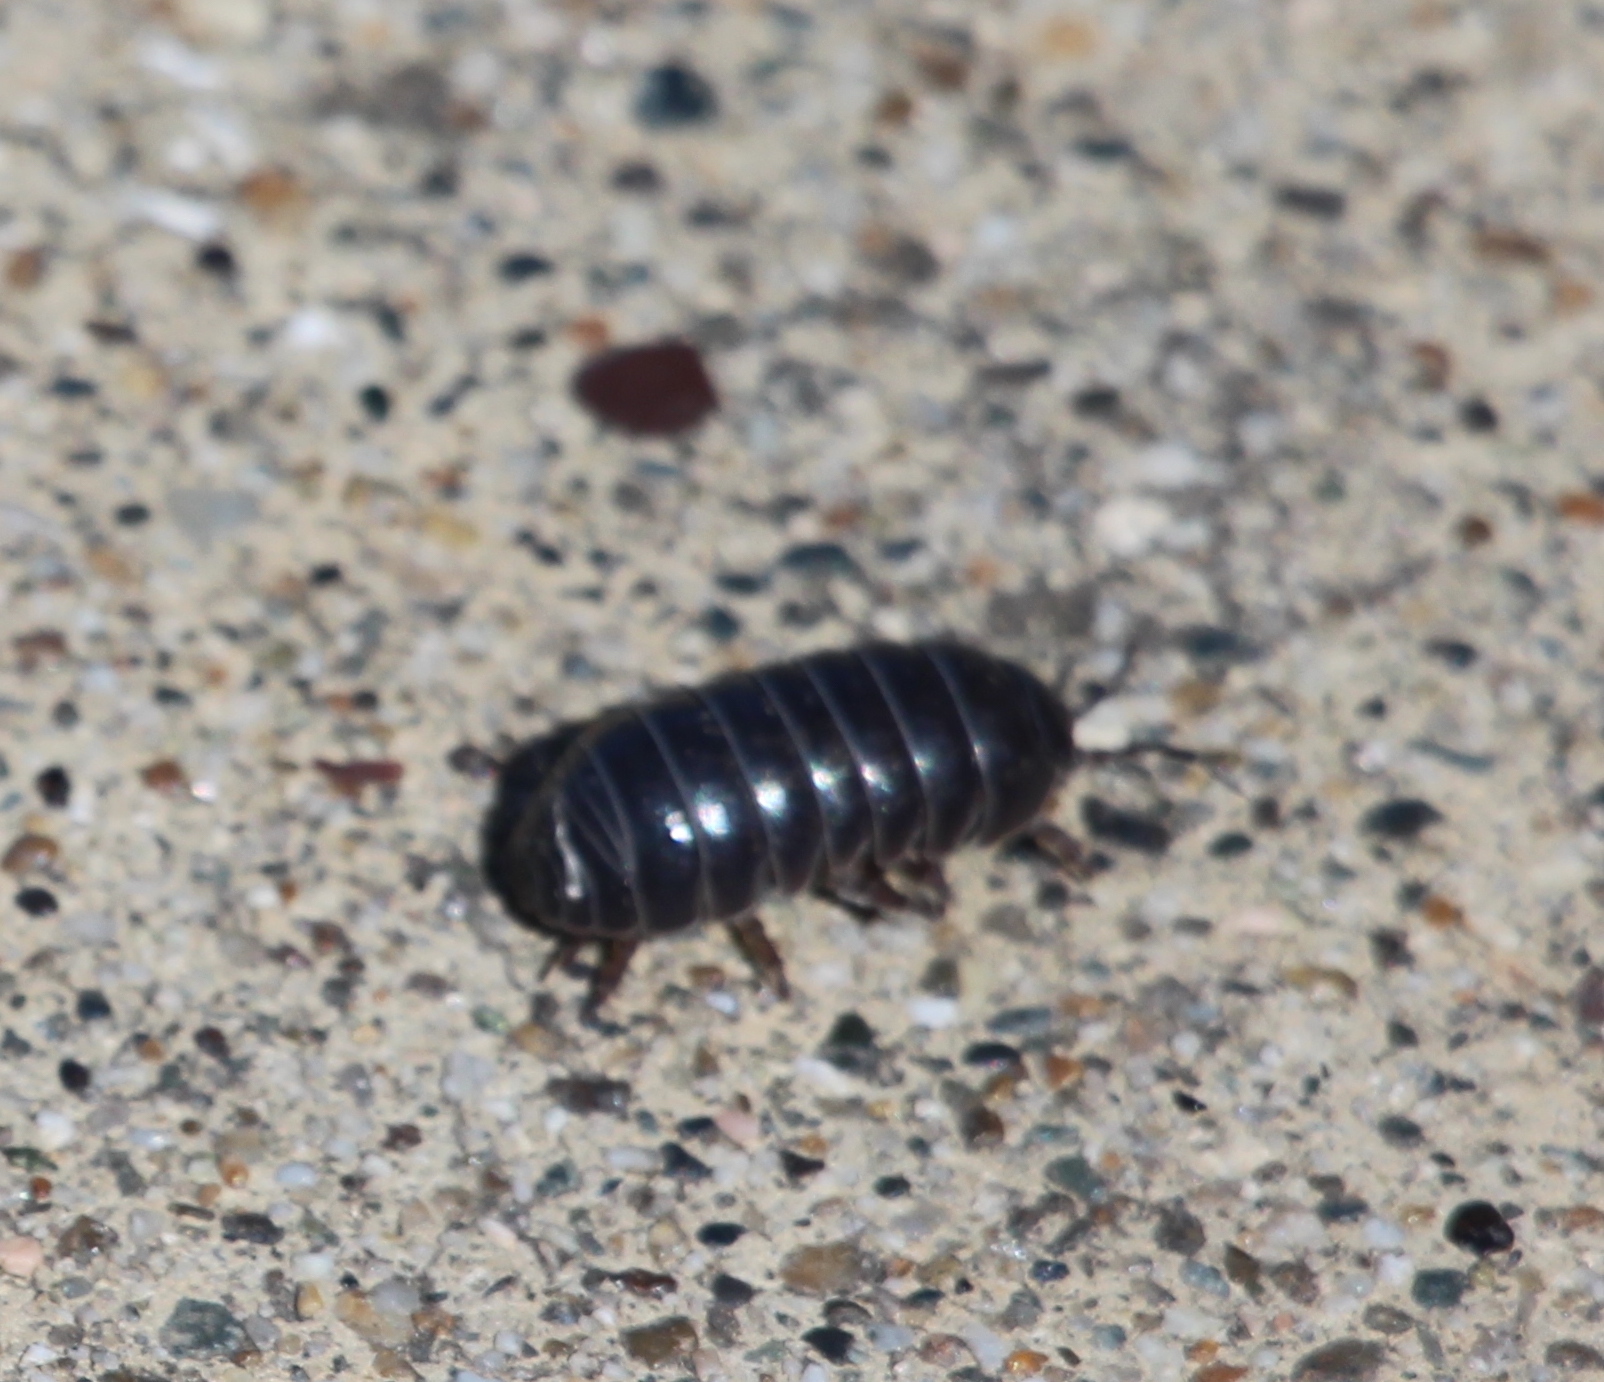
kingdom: Animalia
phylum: Arthropoda
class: Malacostraca
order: Isopoda
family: Armadillidiidae
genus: Armadillidium
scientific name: Armadillidium vulgare
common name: Common pill woodlouse
